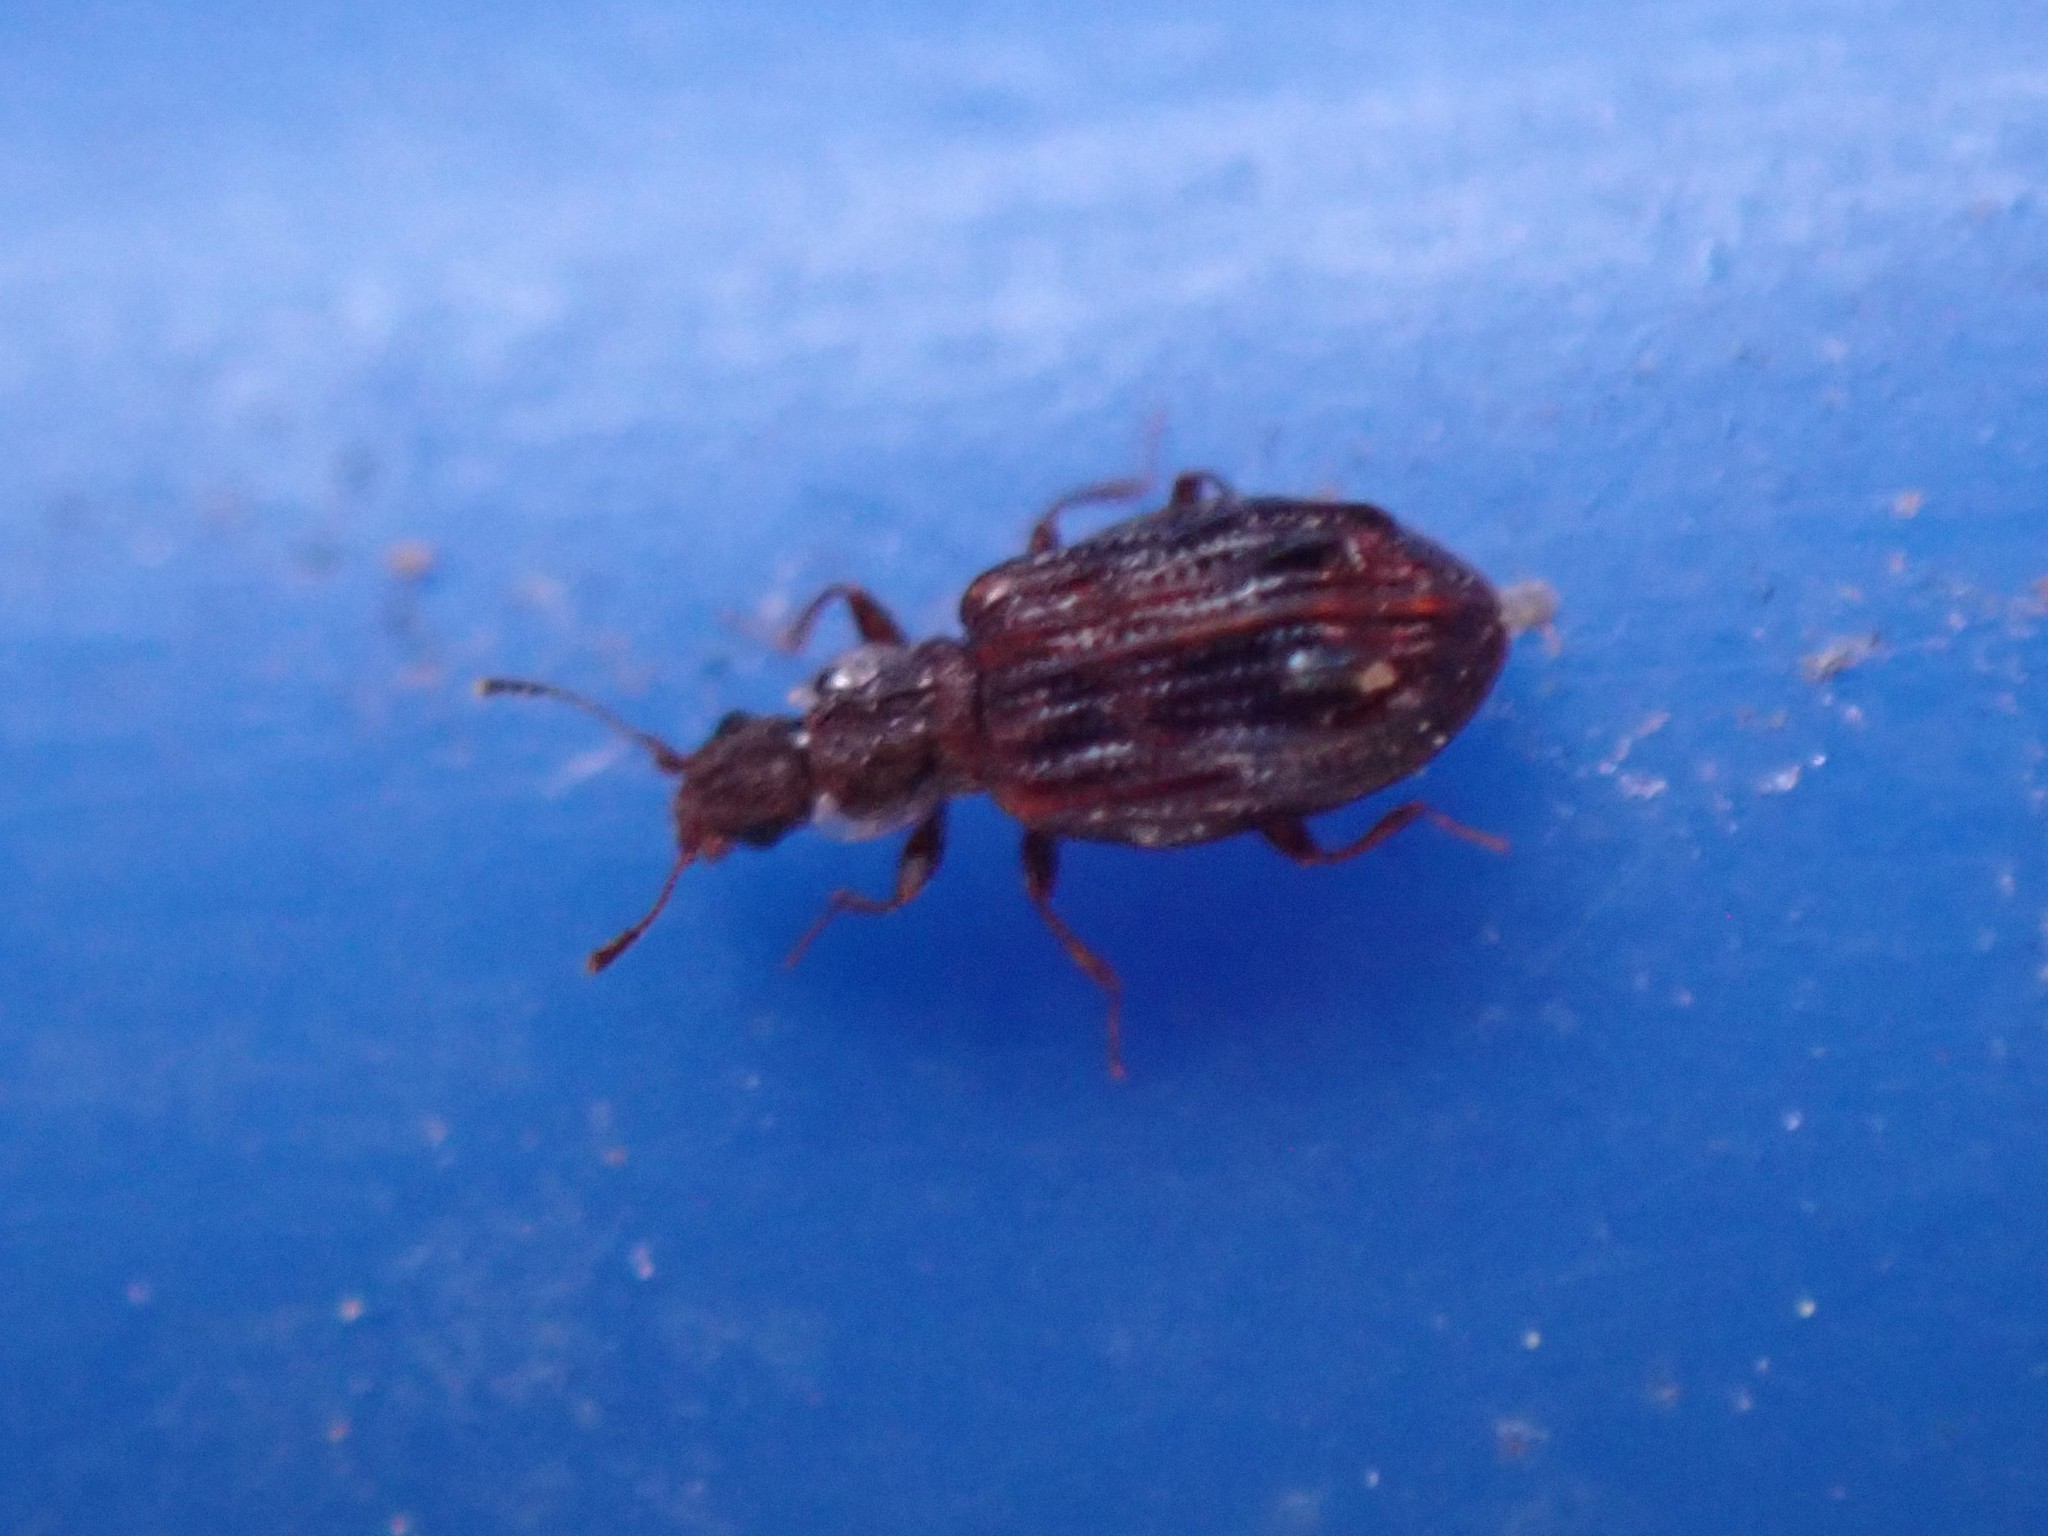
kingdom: Animalia
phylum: Arthropoda
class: Insecta
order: Coleoptera
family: Latridiidae
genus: Cartodere
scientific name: Cartodere nodifer
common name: Humpbacked minute scavenger beetle
